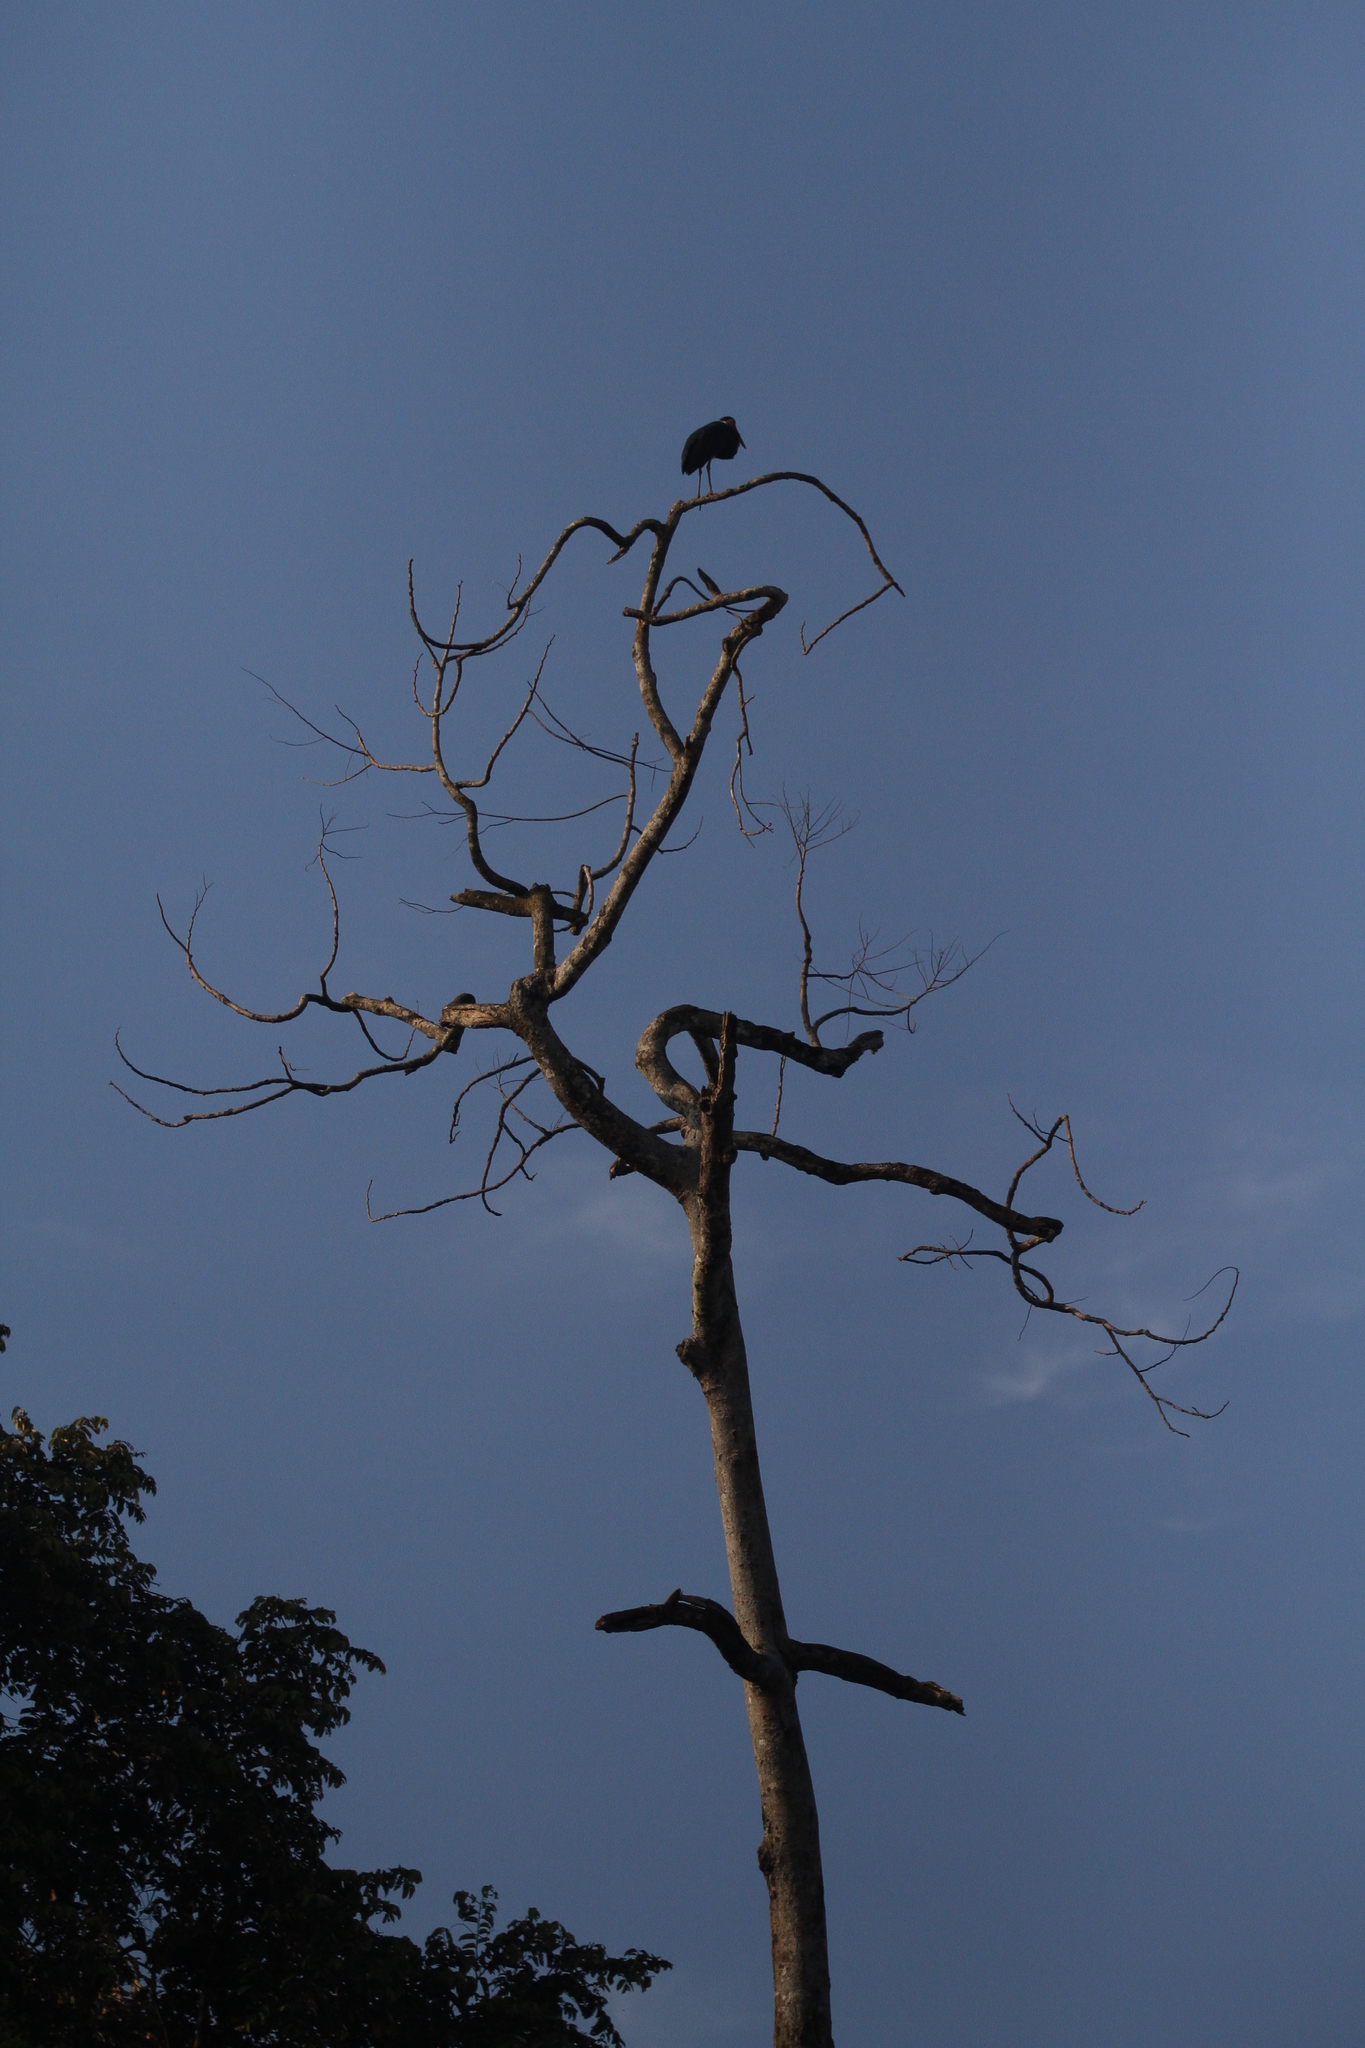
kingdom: Animalia
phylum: Chordata
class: Aves
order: Ciconiiformes
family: Ciconiidae
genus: Ciconia
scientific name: Ciconia stormi
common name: Storm's stork
